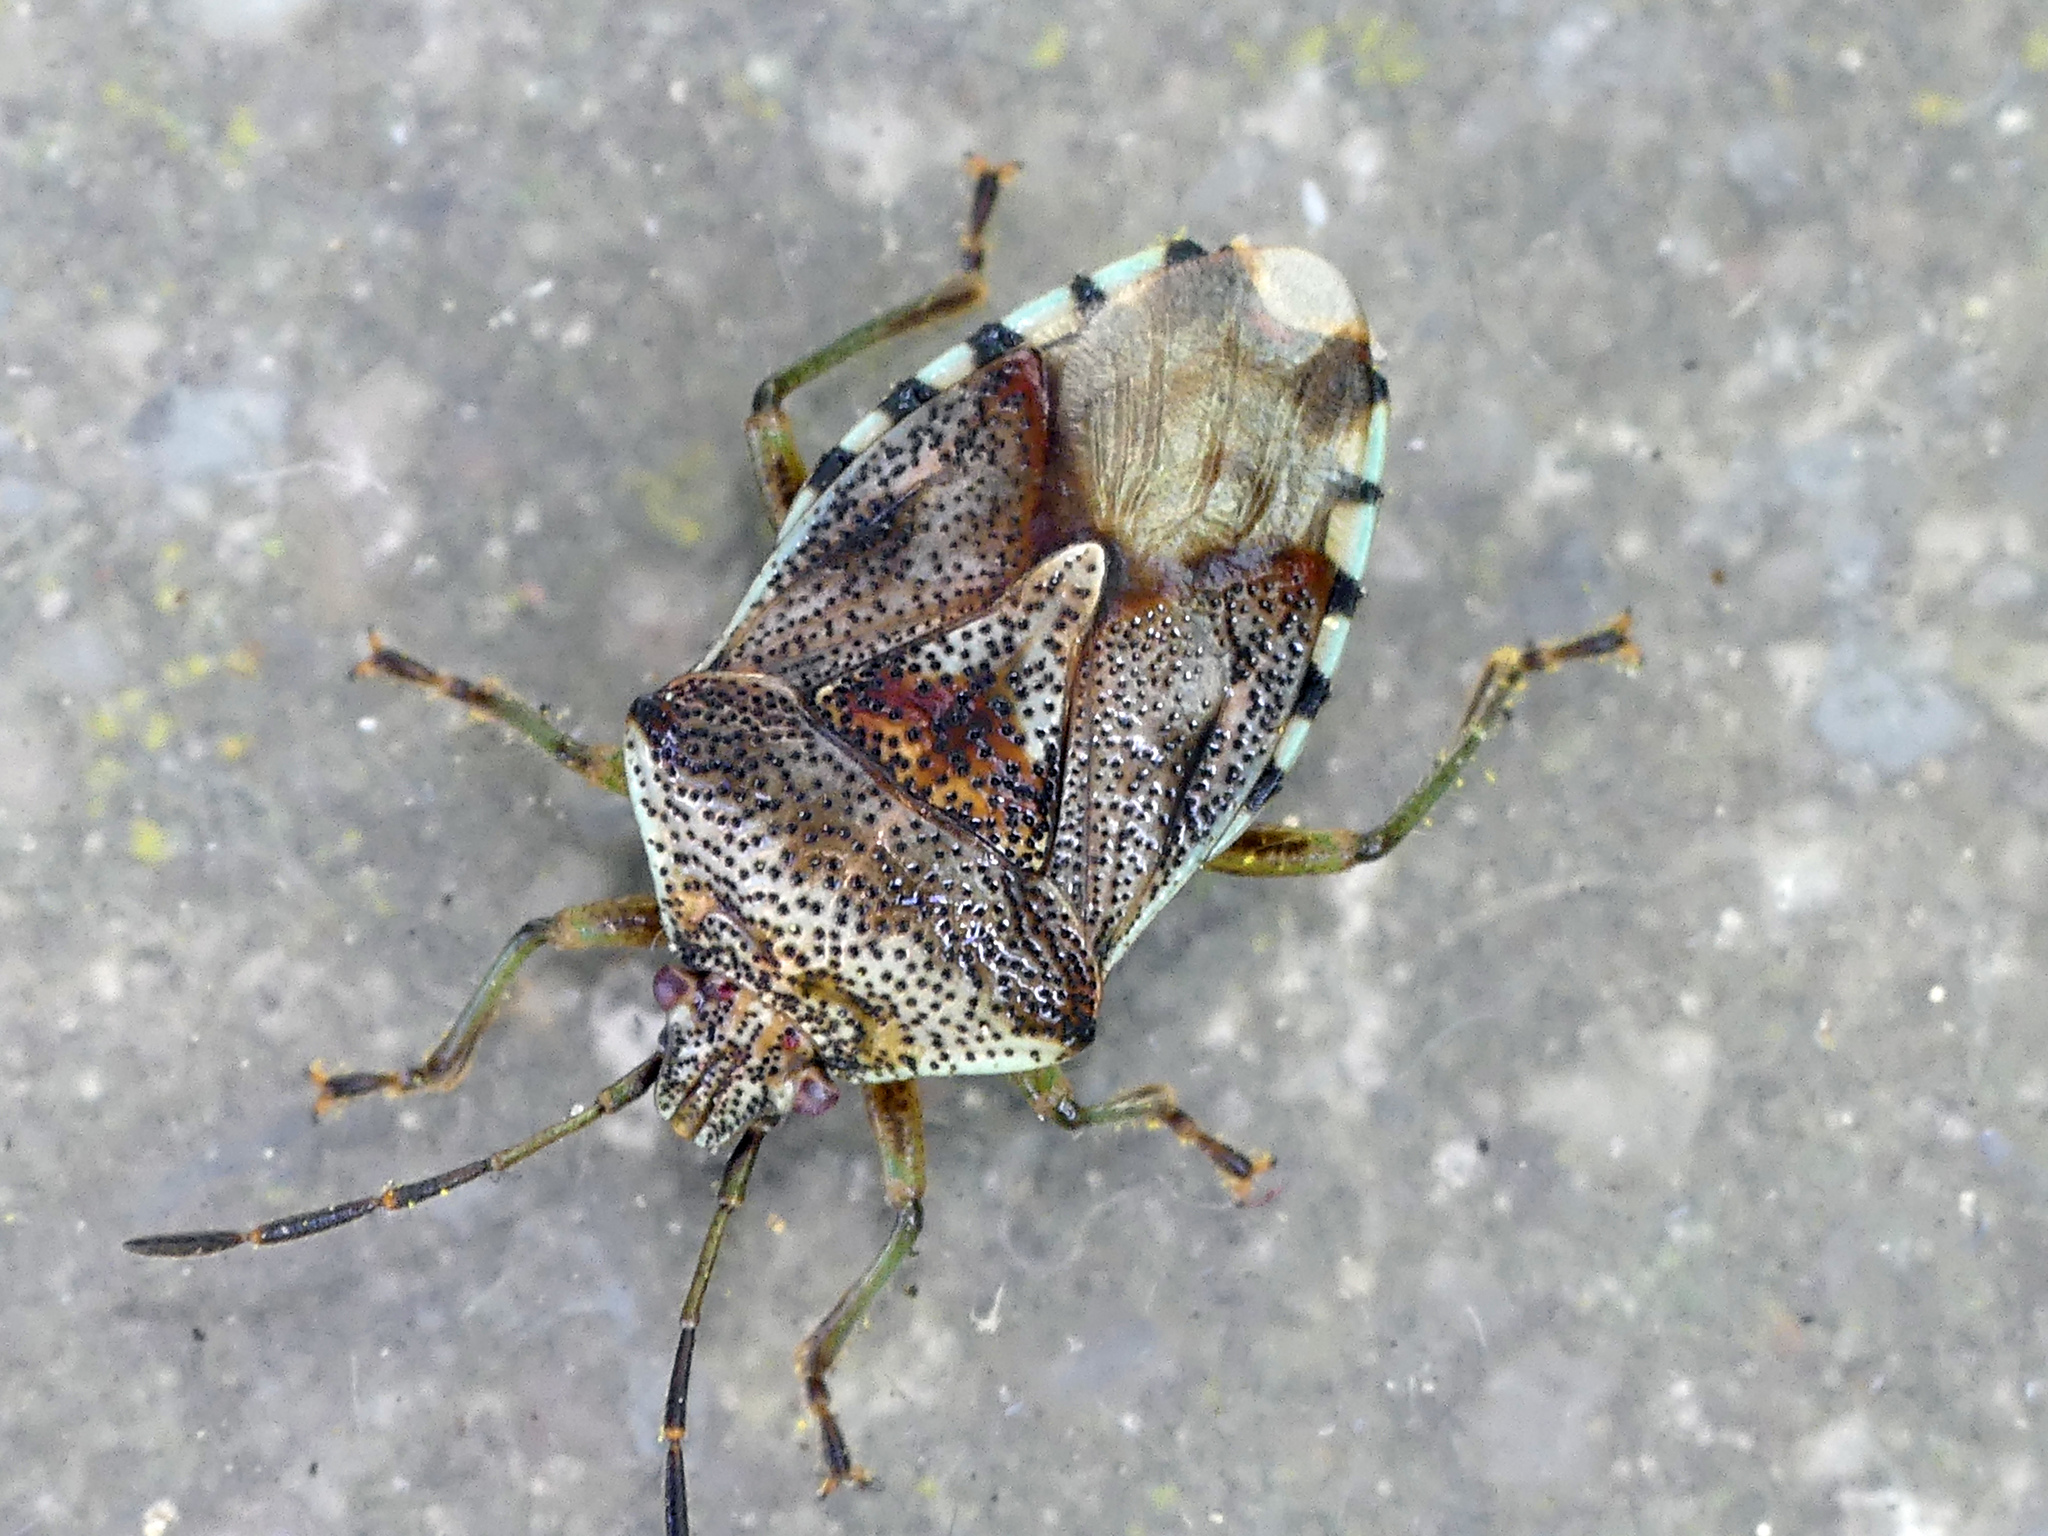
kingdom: Animalia
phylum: Arthropoda
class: Insecta
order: Hemiptera
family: Acanthosomatidae
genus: Elasmucha
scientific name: Elasmucha grisea
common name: Parent bug
